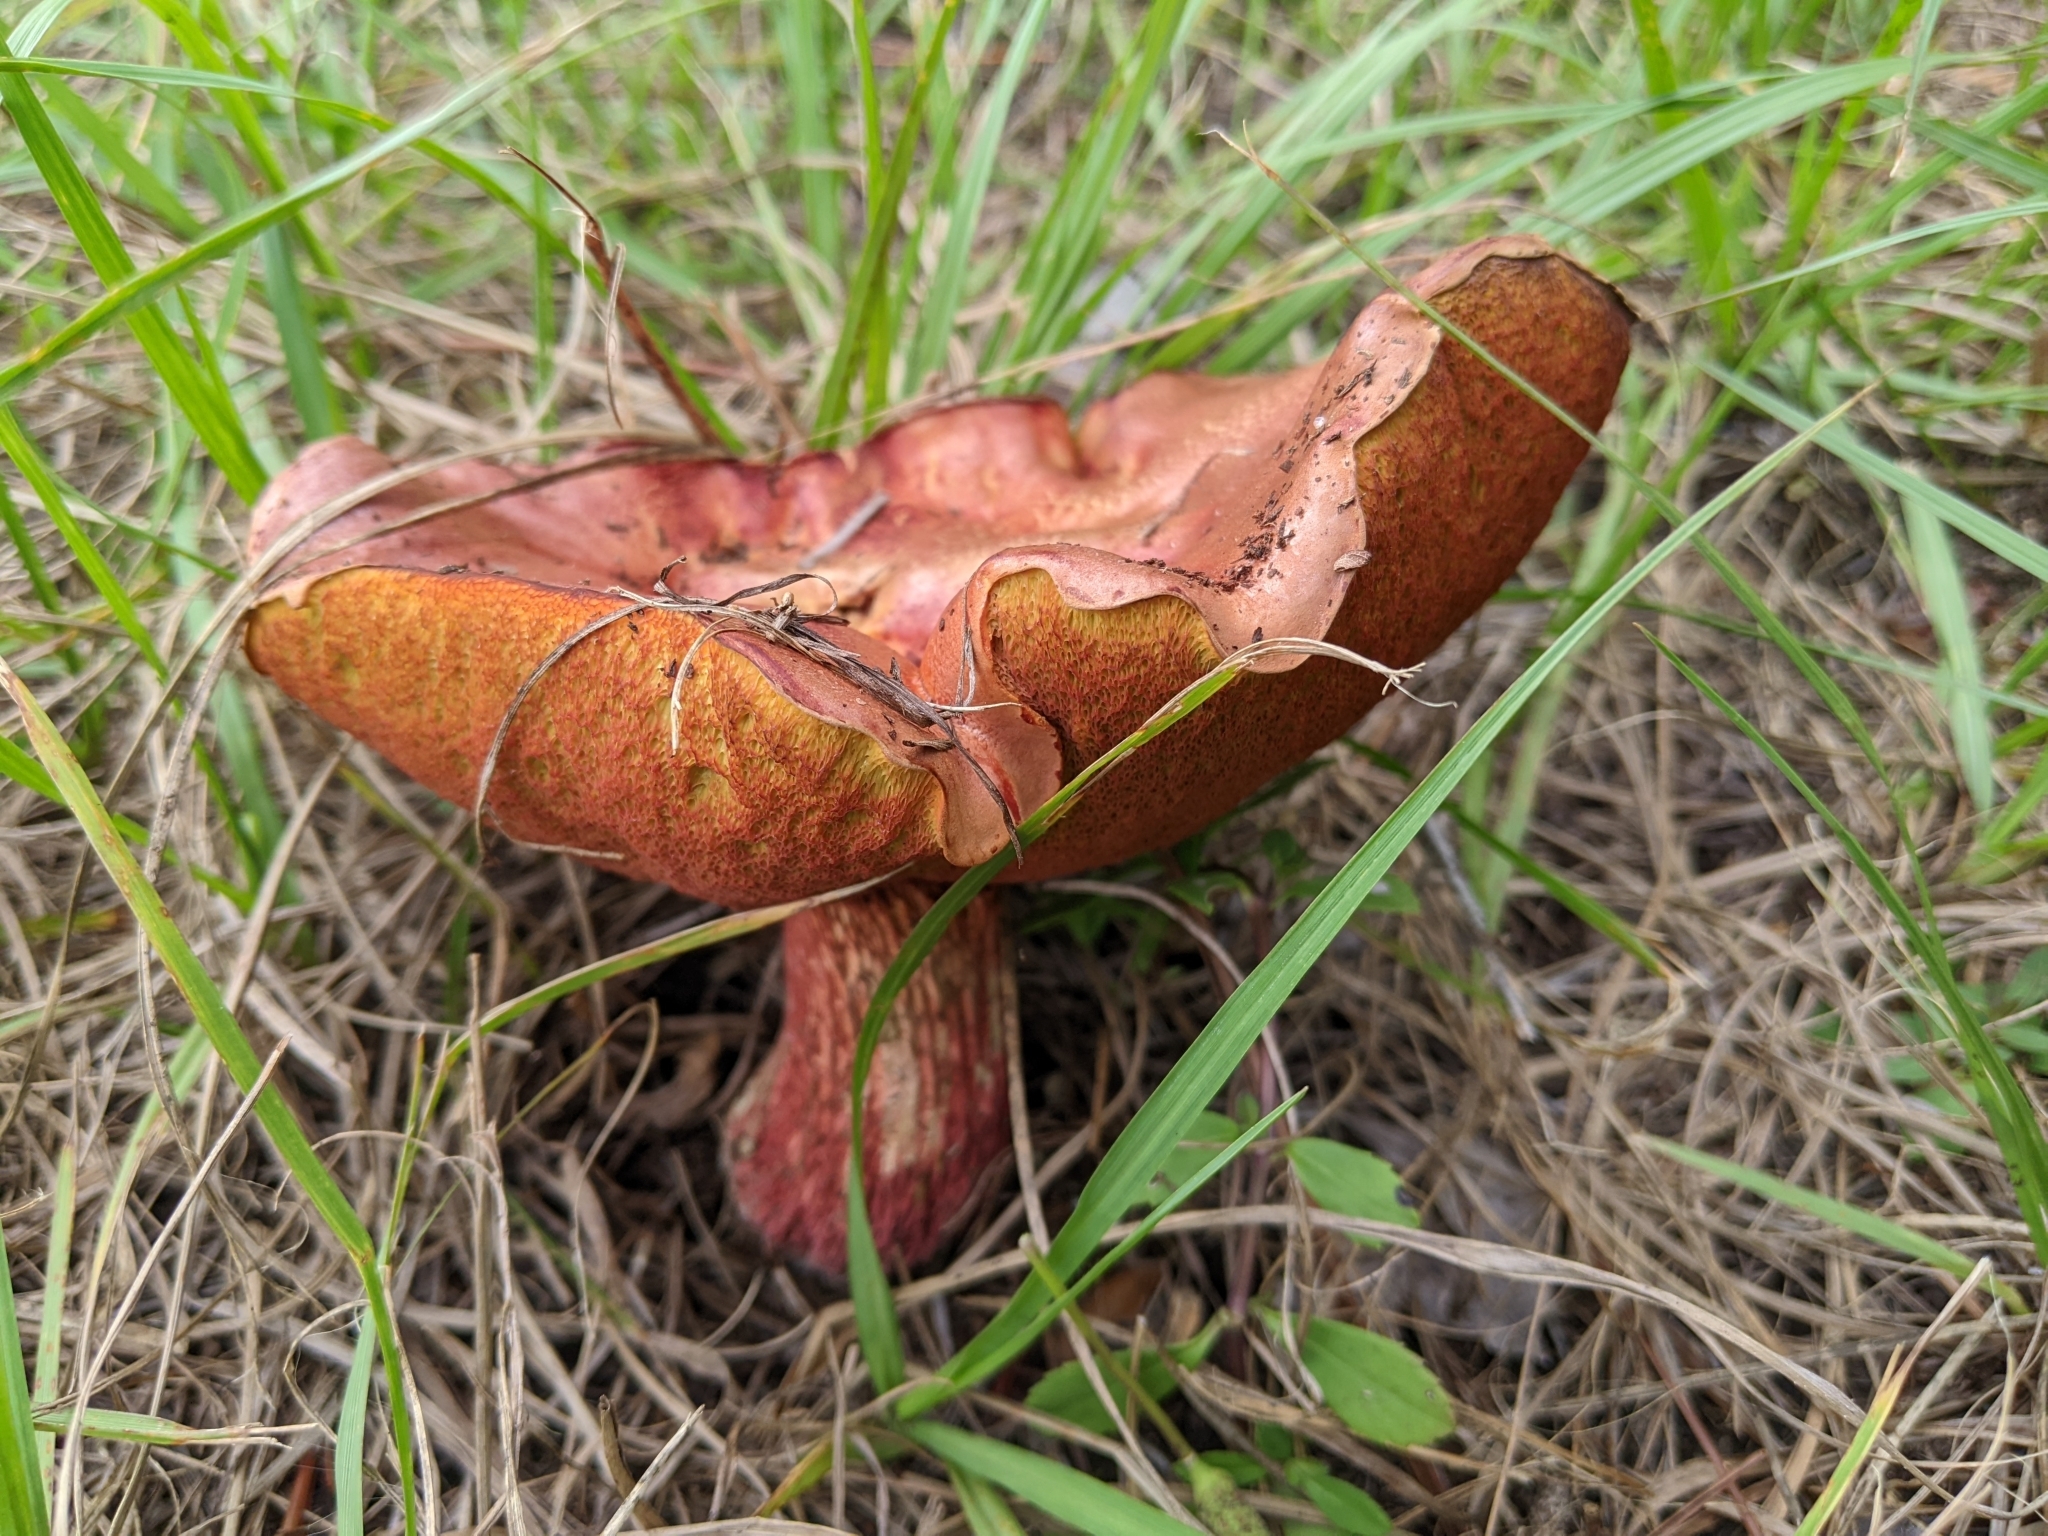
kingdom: Fungi
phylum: Basidiomycota
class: Agaricomycetes
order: Boletales
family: Boletaceae
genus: Butyriboletus
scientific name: Butyriboletus floridanus
